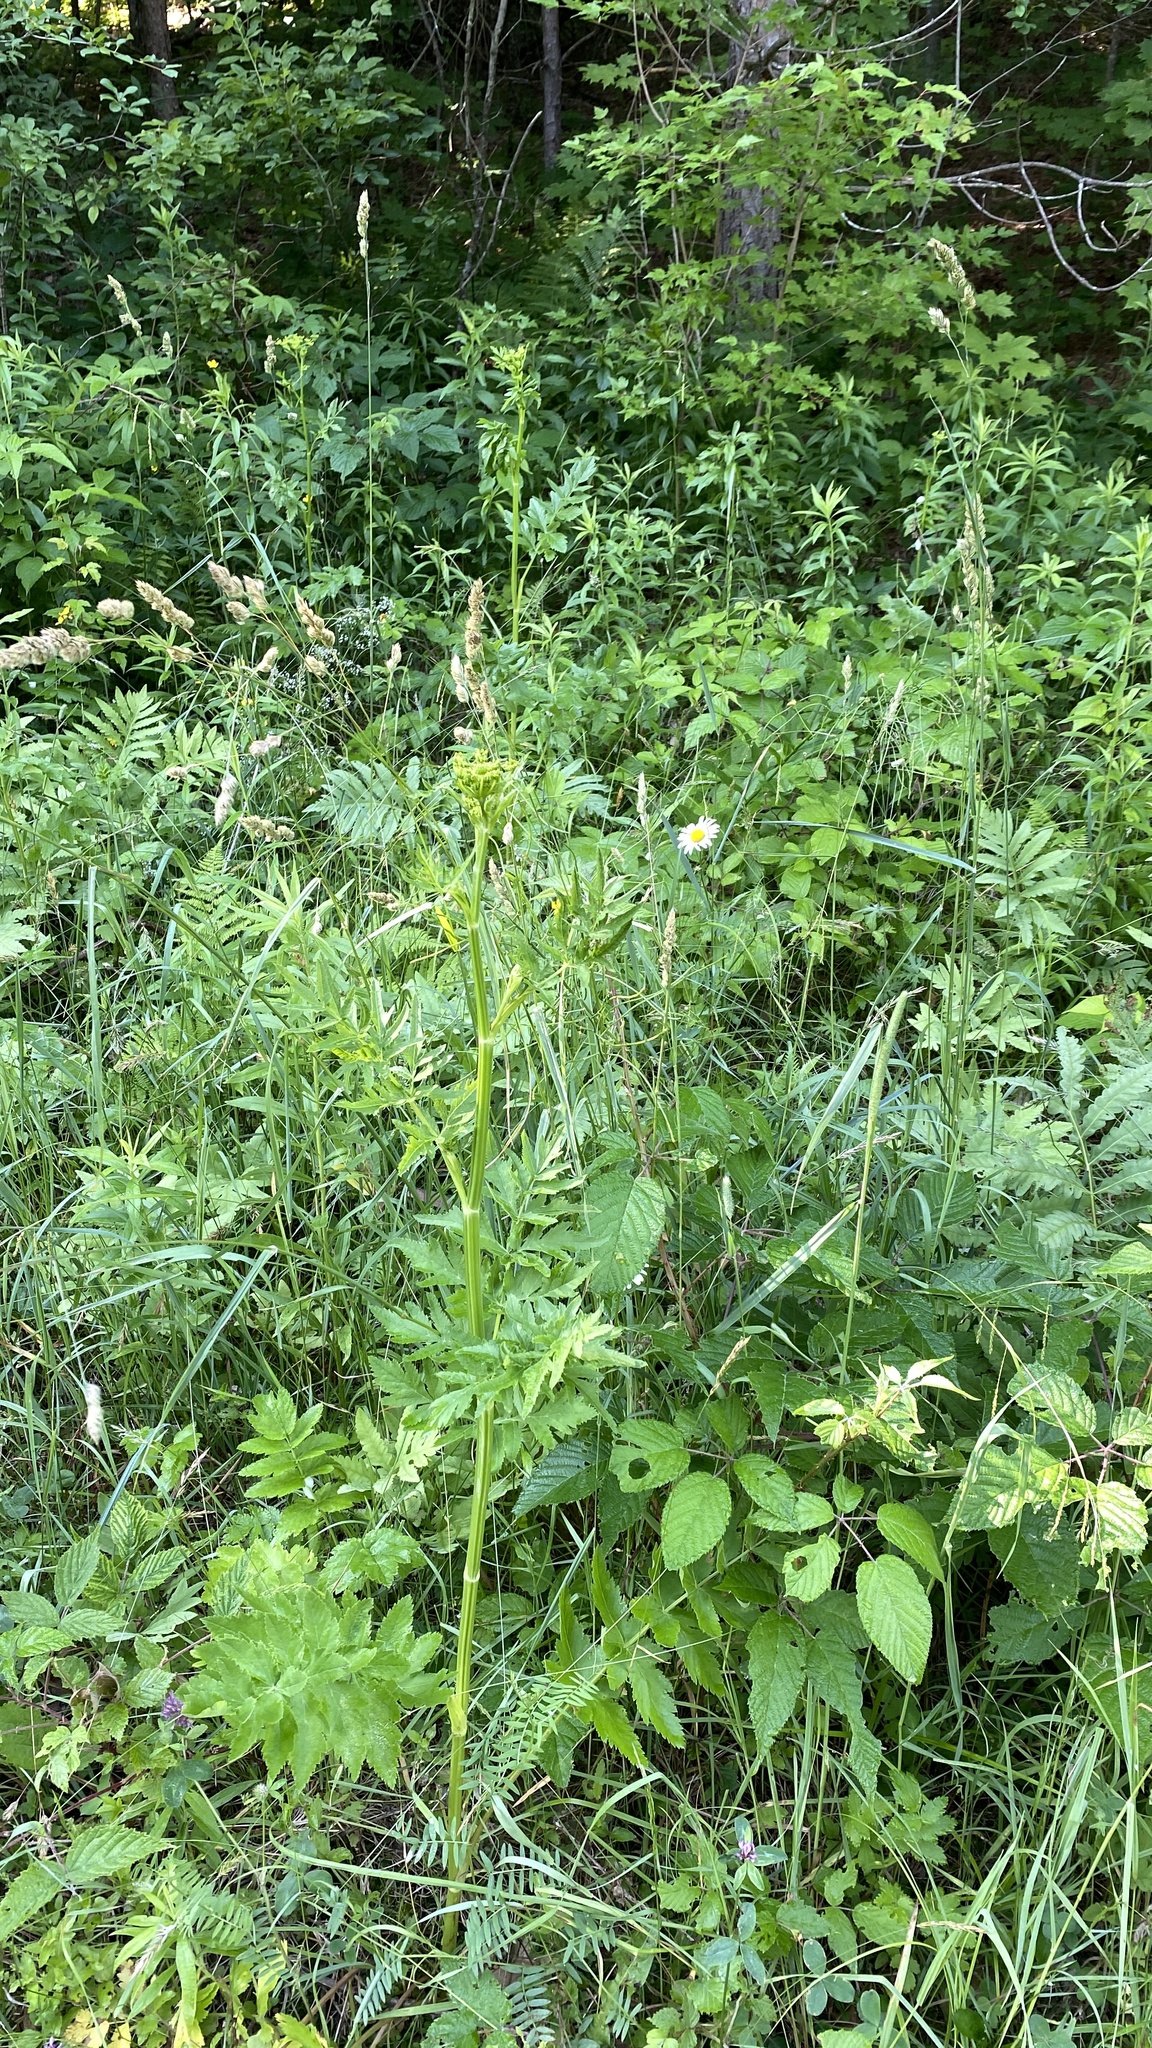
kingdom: Plantae
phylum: Tracheophyta
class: Magnoliopsida
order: Apiales
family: Apiaceae
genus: Pastinaca
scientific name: Pastinaca sativa
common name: Wild parsnip
